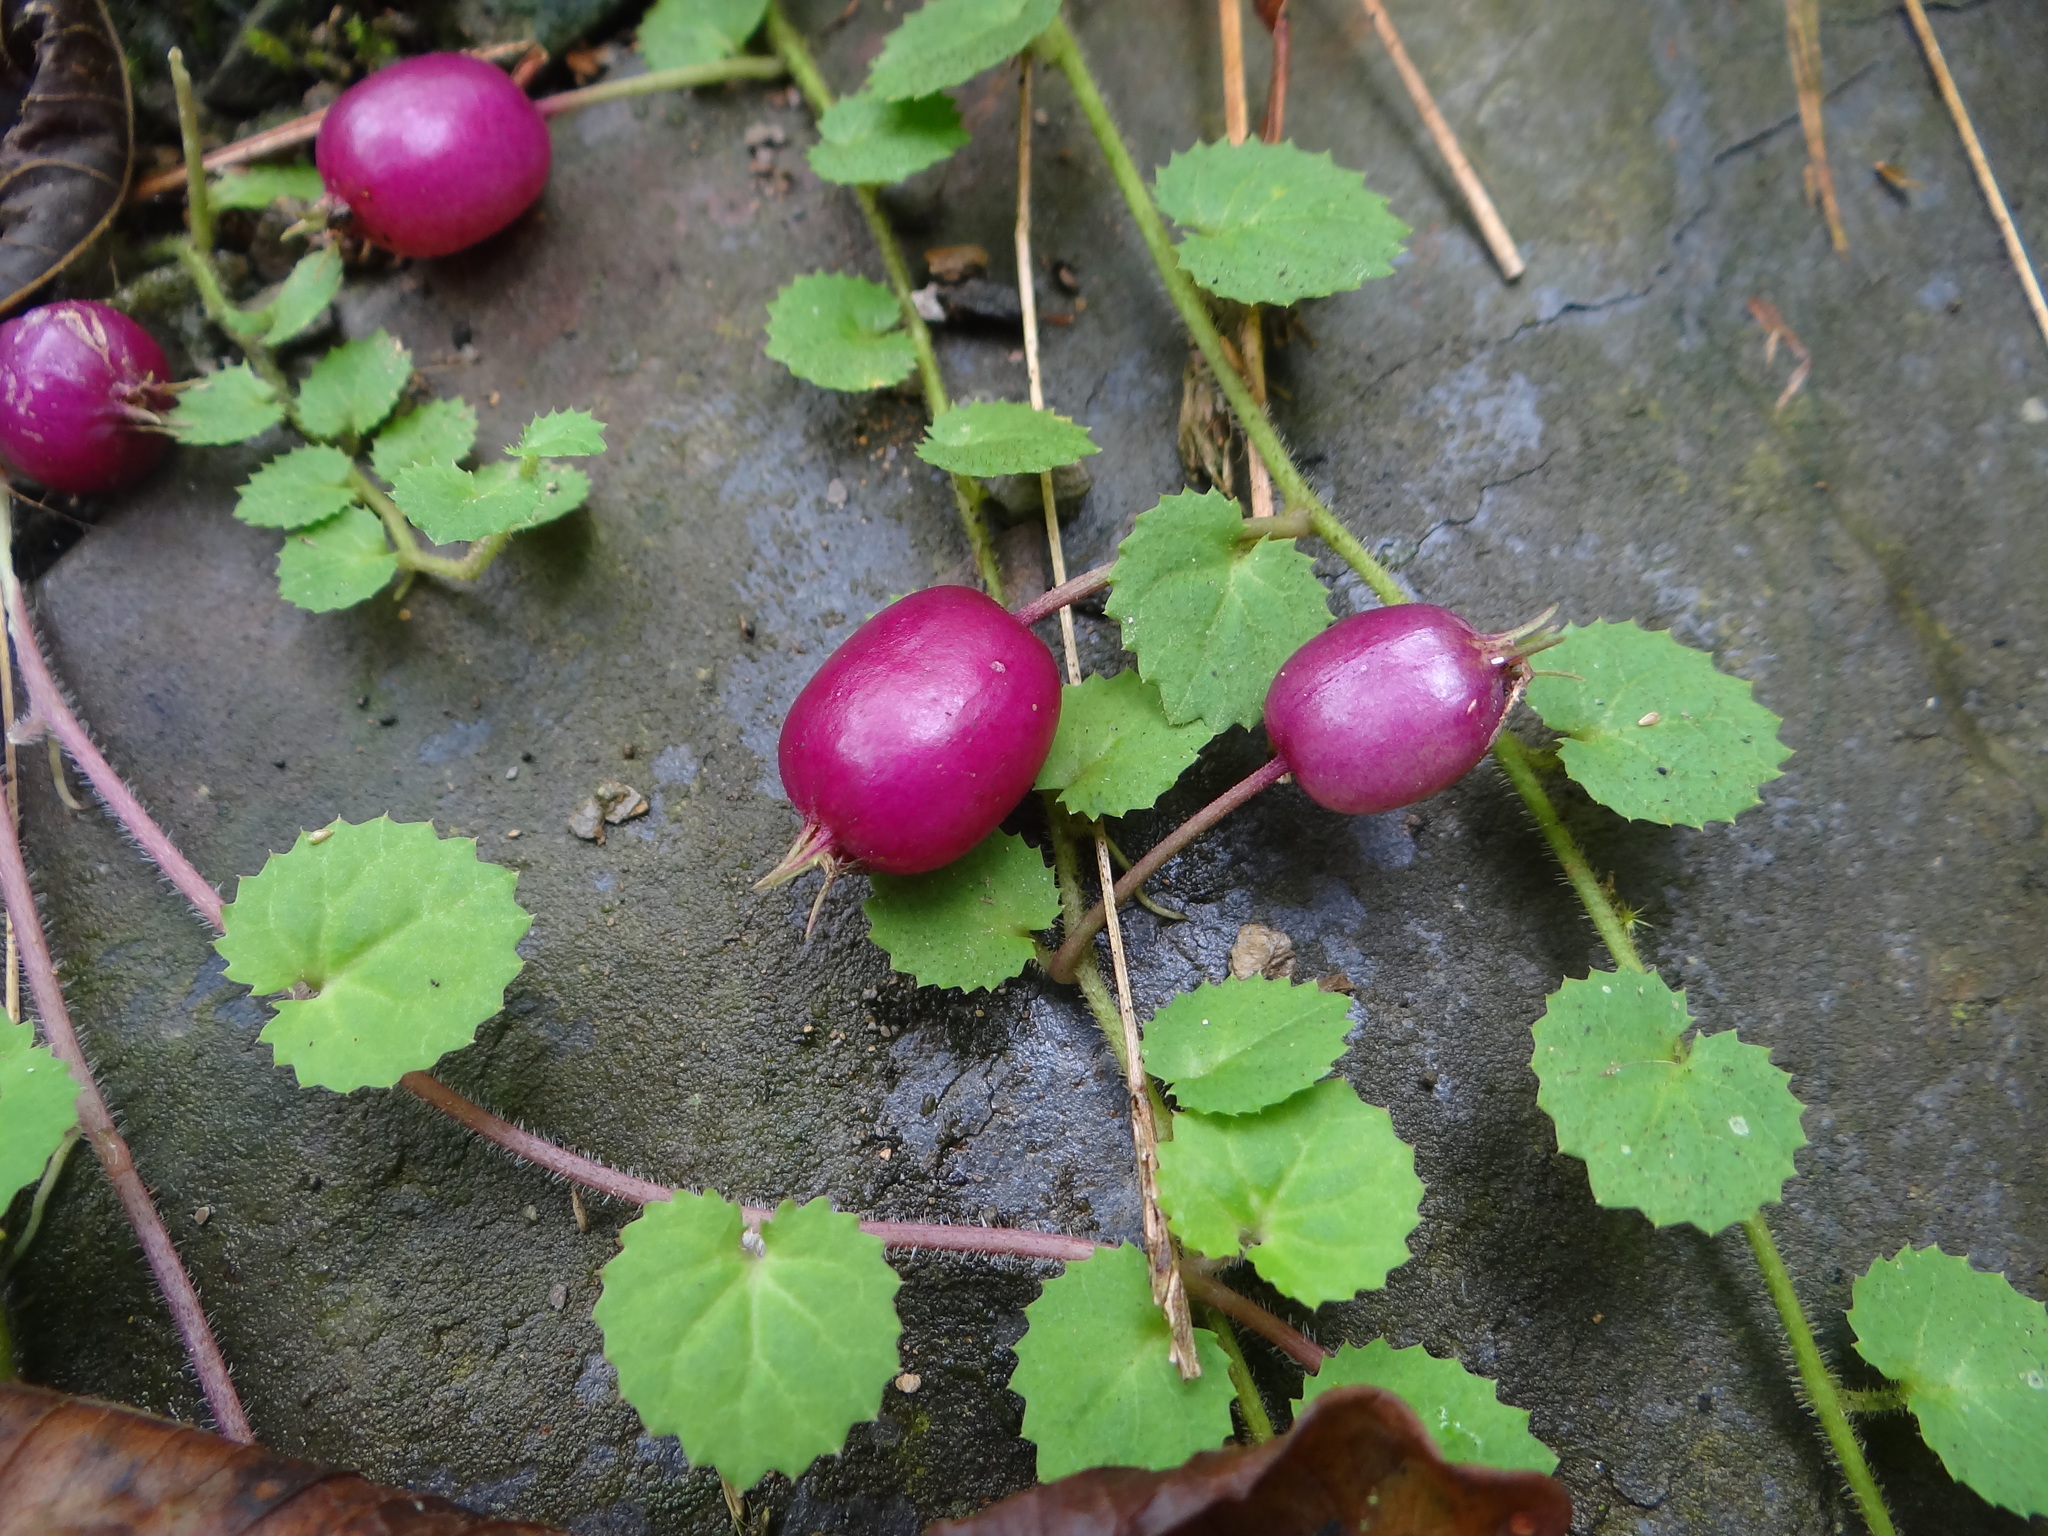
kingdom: Plantae
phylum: Tracheophyta
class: Magnoliopsida
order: Asterales
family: Campanulaceae
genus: Lobelia
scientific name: Lobelia nummularia
